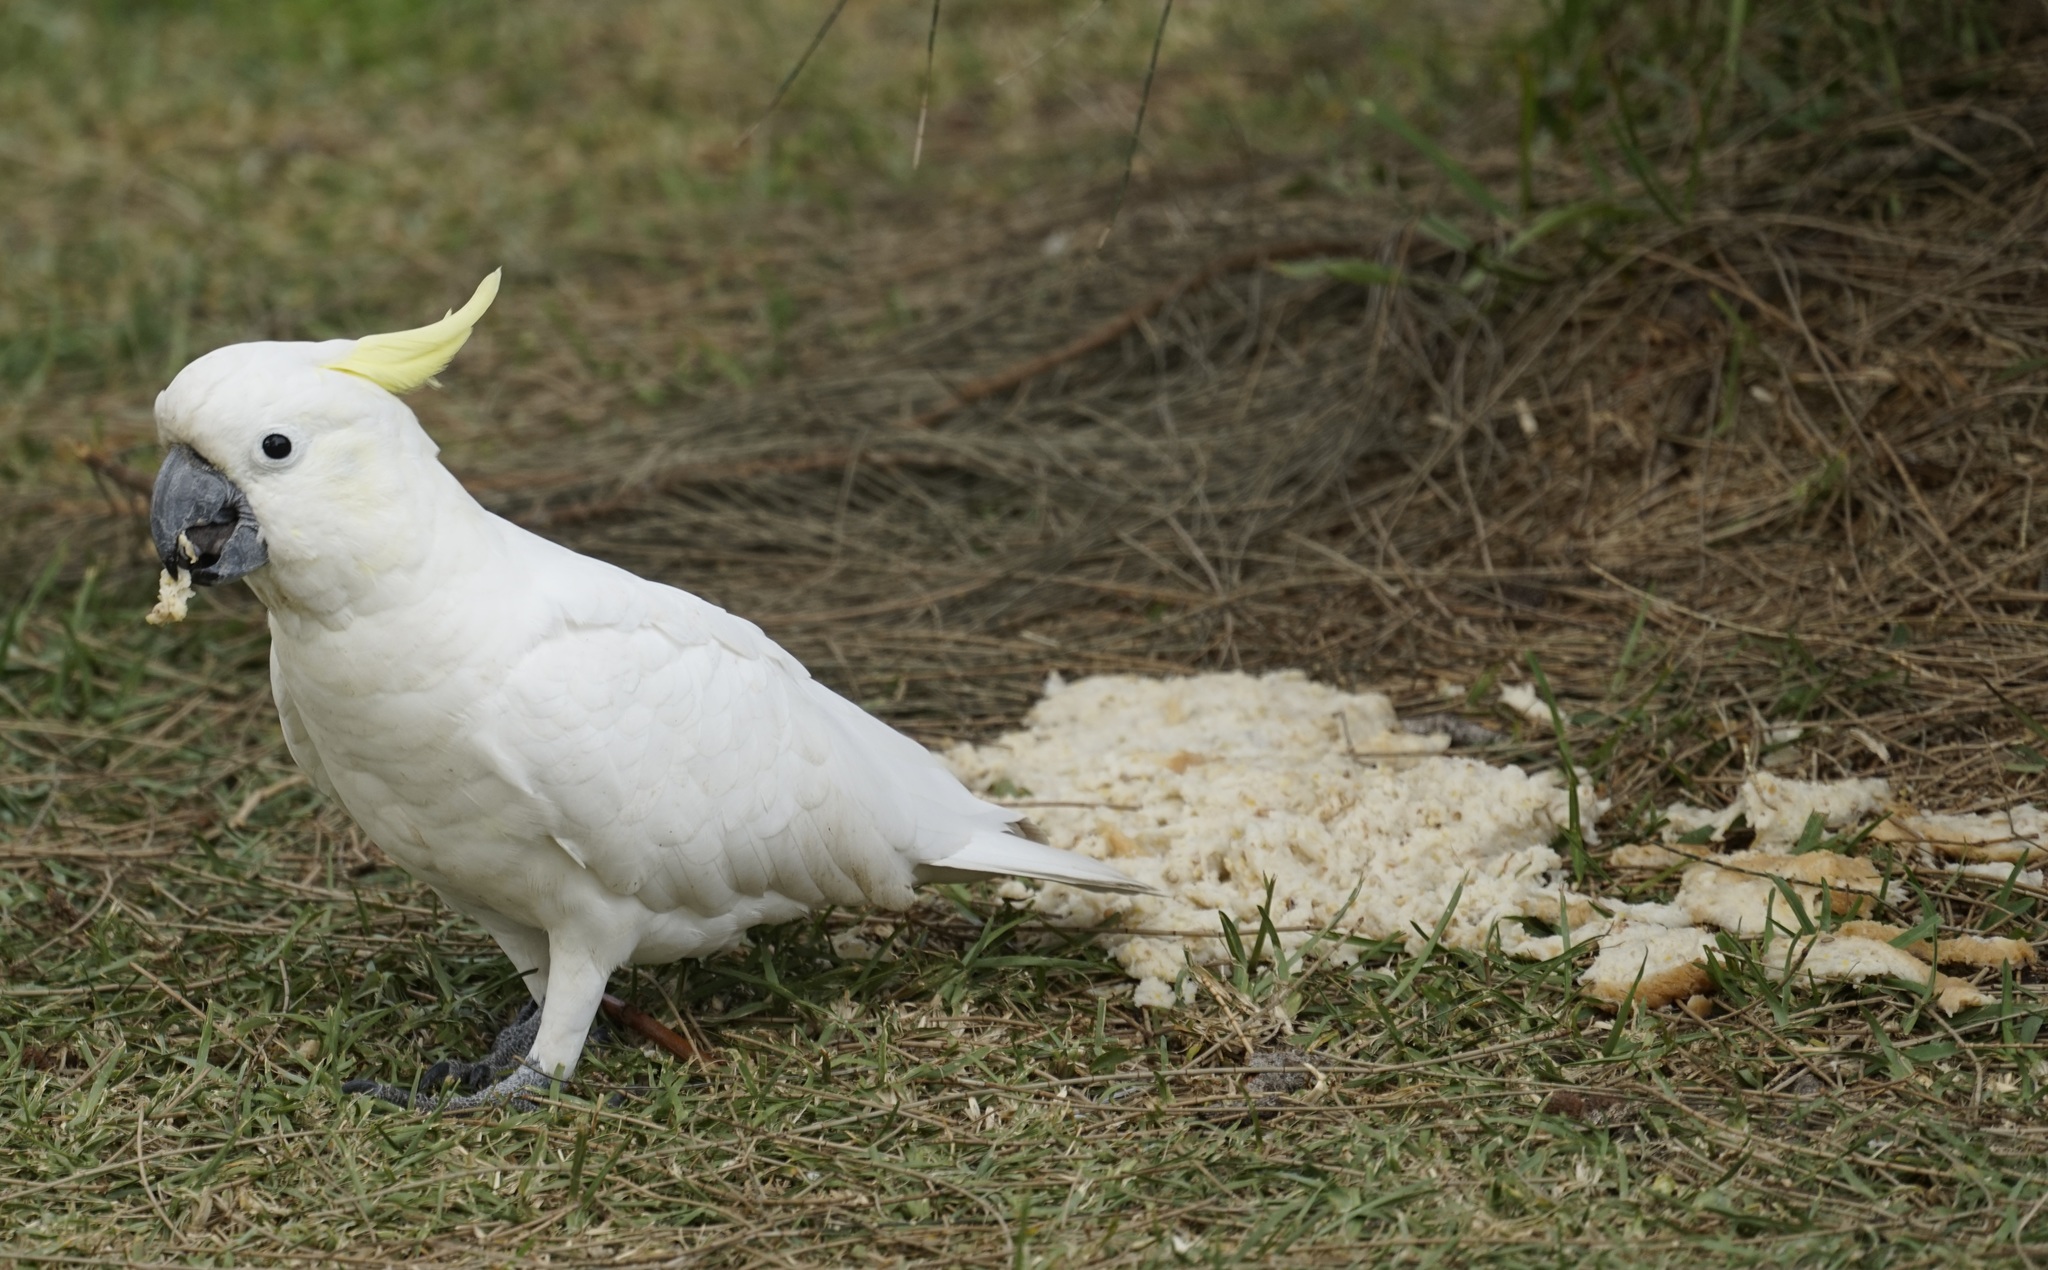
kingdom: Animalia
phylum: Chordata
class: Aves
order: Psittaciformes
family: Psittacidae
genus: Cacatua
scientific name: Cacatua galerita
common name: Sulphur-crested cockatoo
